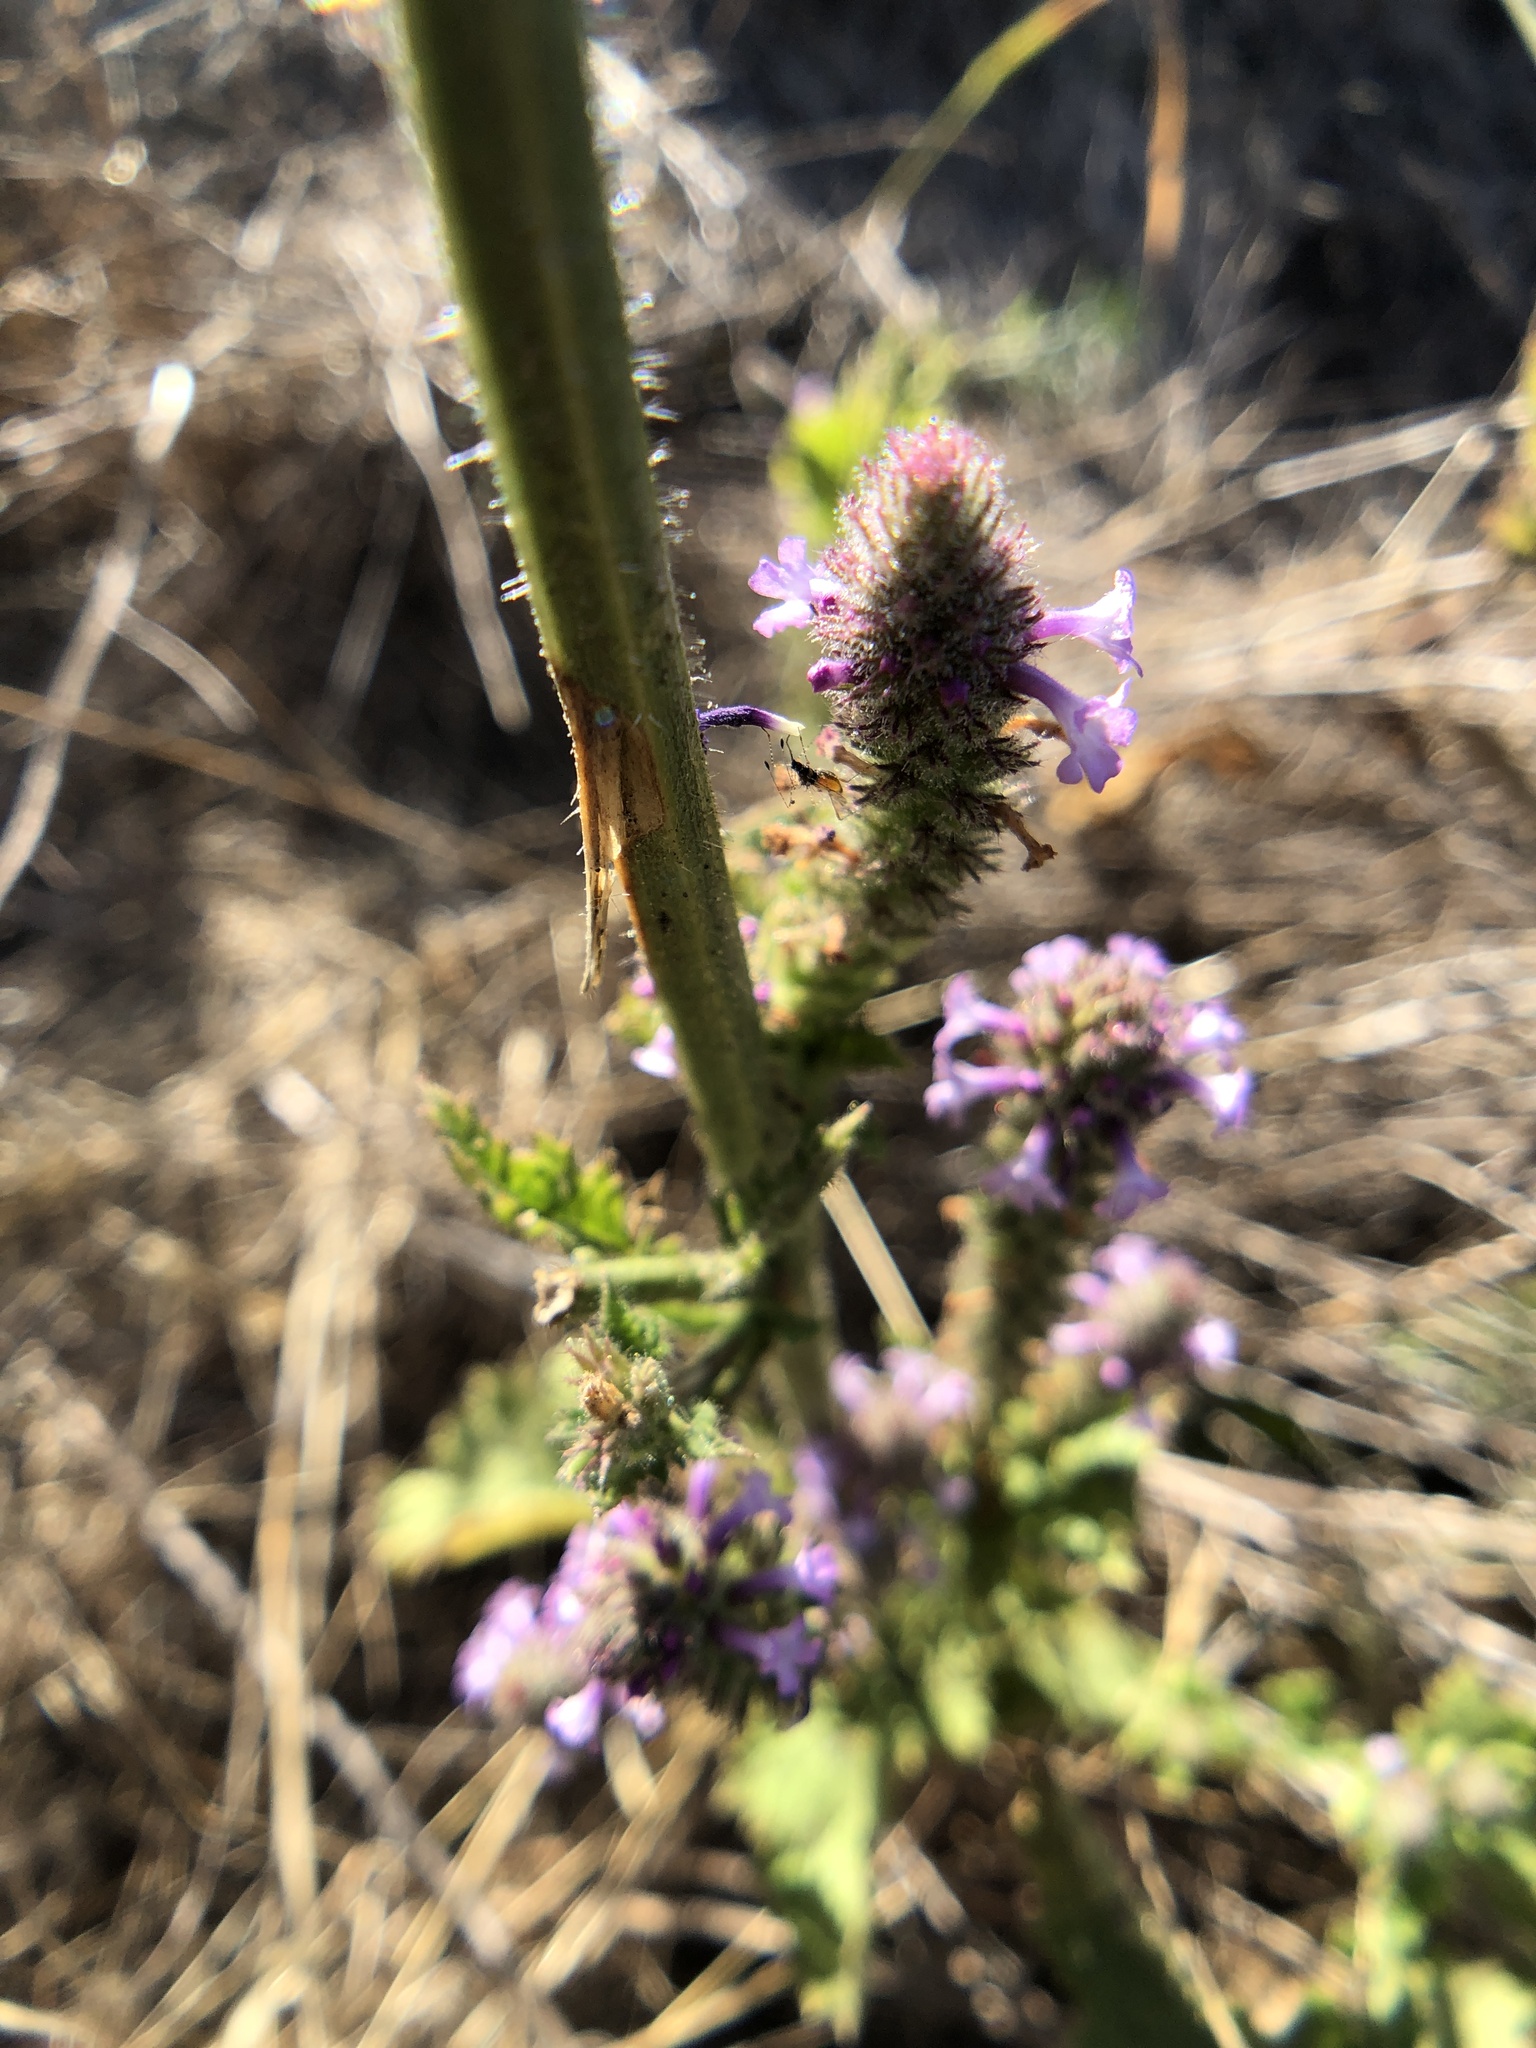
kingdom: Plantae
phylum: Tracheophyta
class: Magnoliopsida
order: Lamiales
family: Verbenaceae
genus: Verbena
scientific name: Verbena lasiostachys
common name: Vervain
